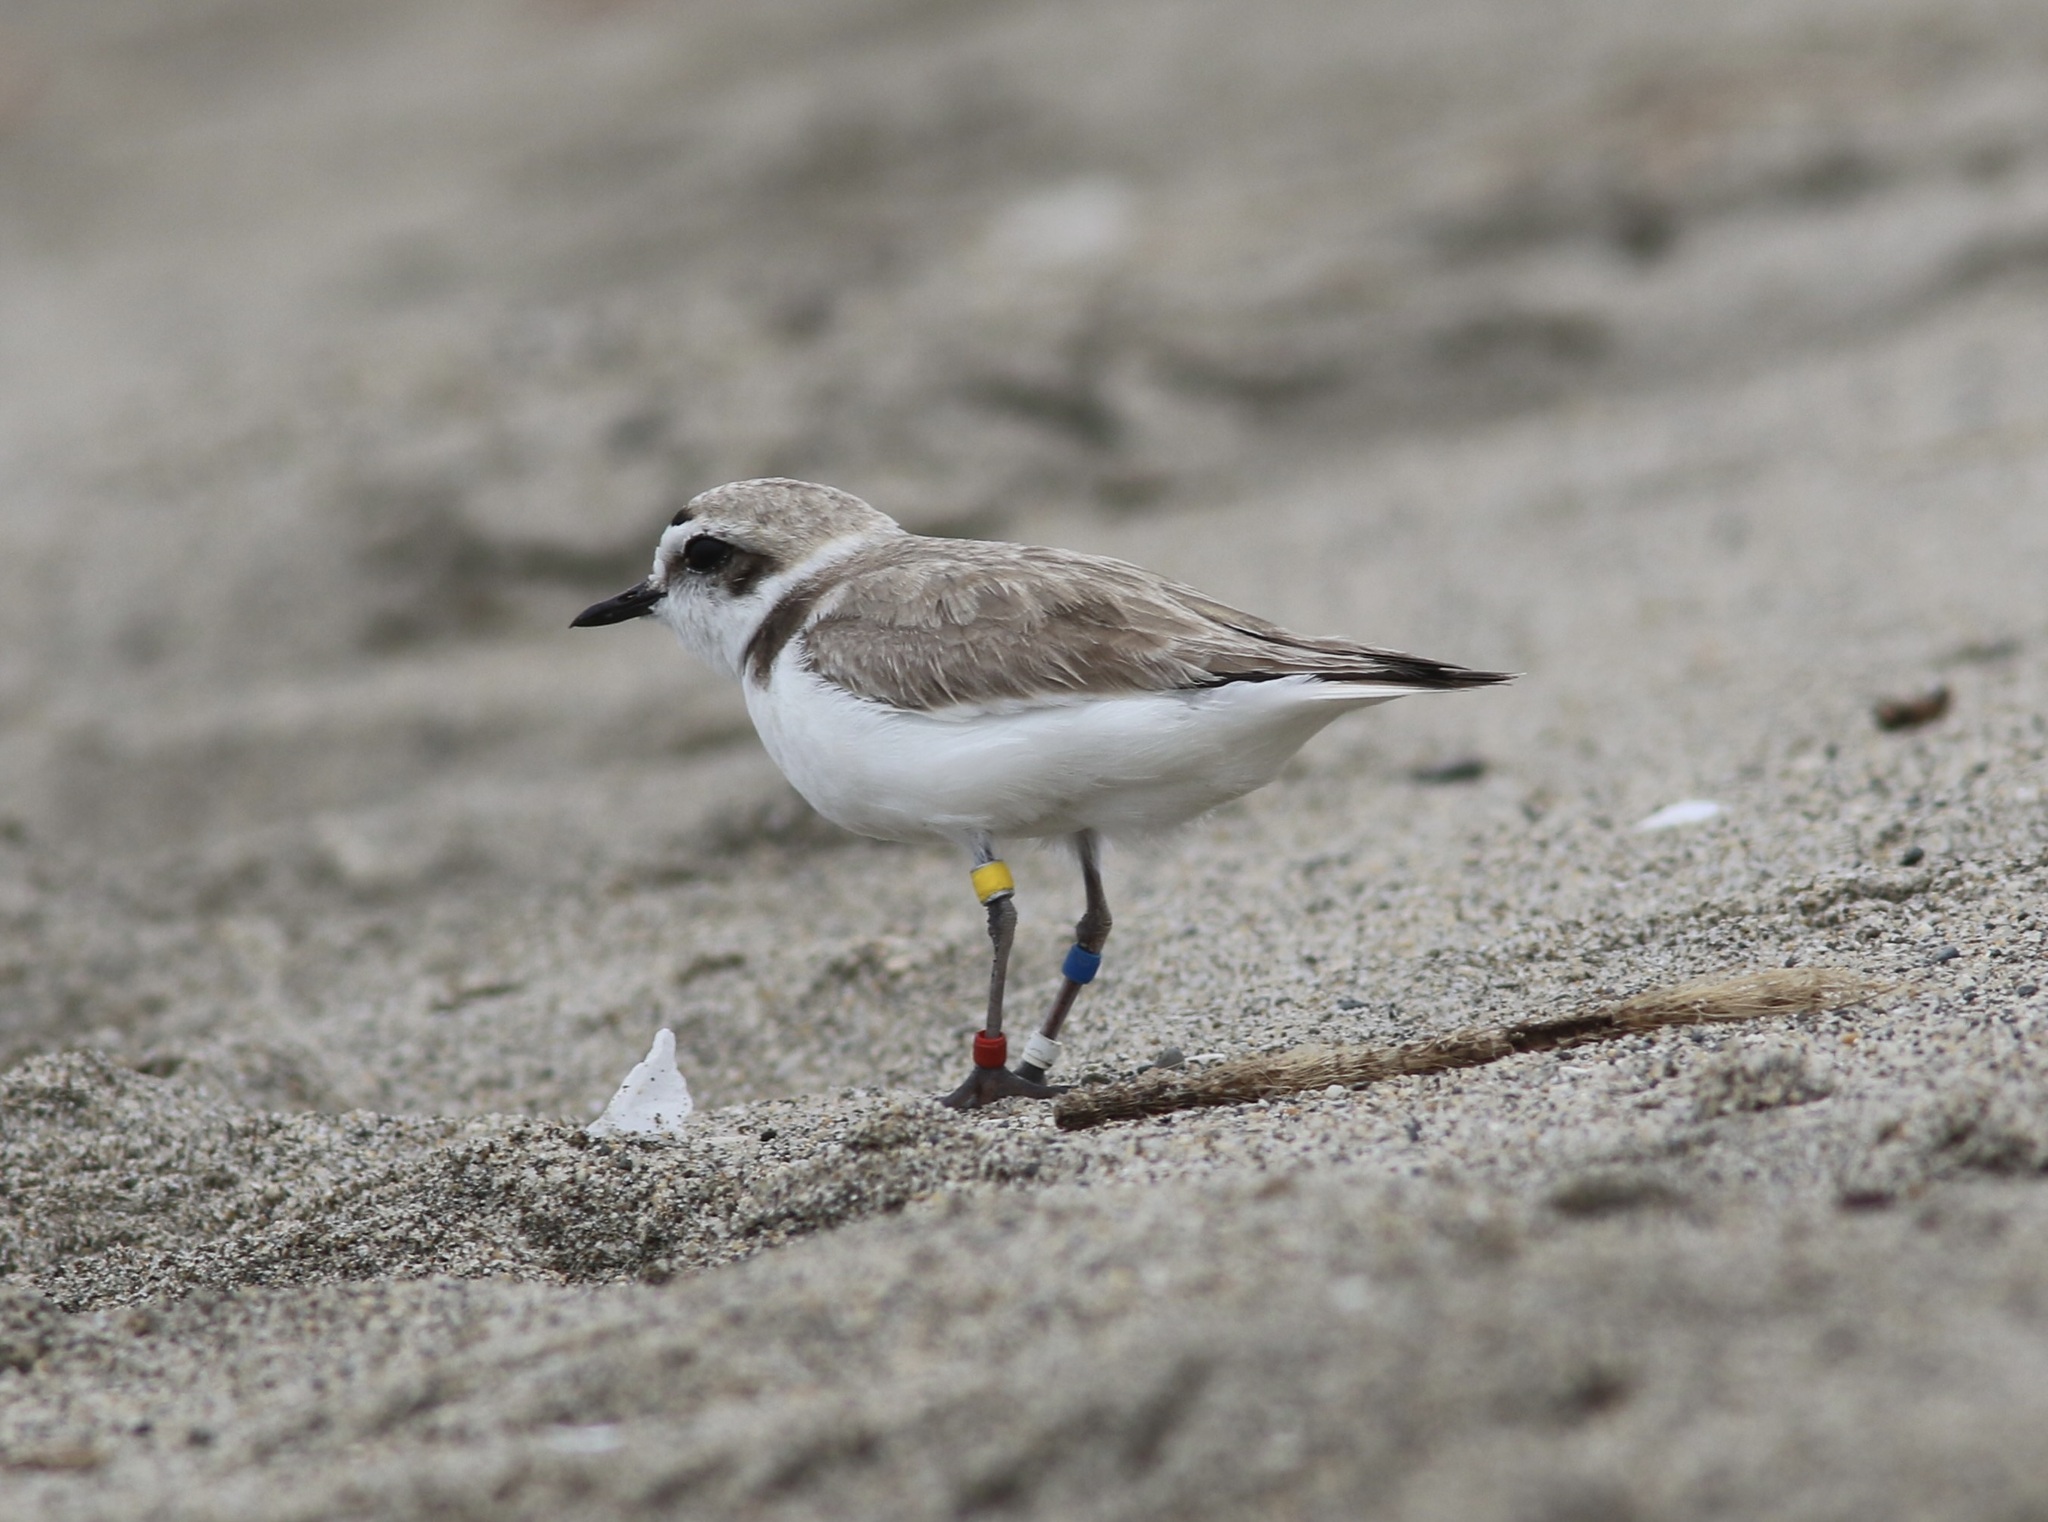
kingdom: Animalia
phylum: Chordata
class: Aves
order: Charadriiformes
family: Charadriidae
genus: Anarhynchus
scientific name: Anarhynchus
